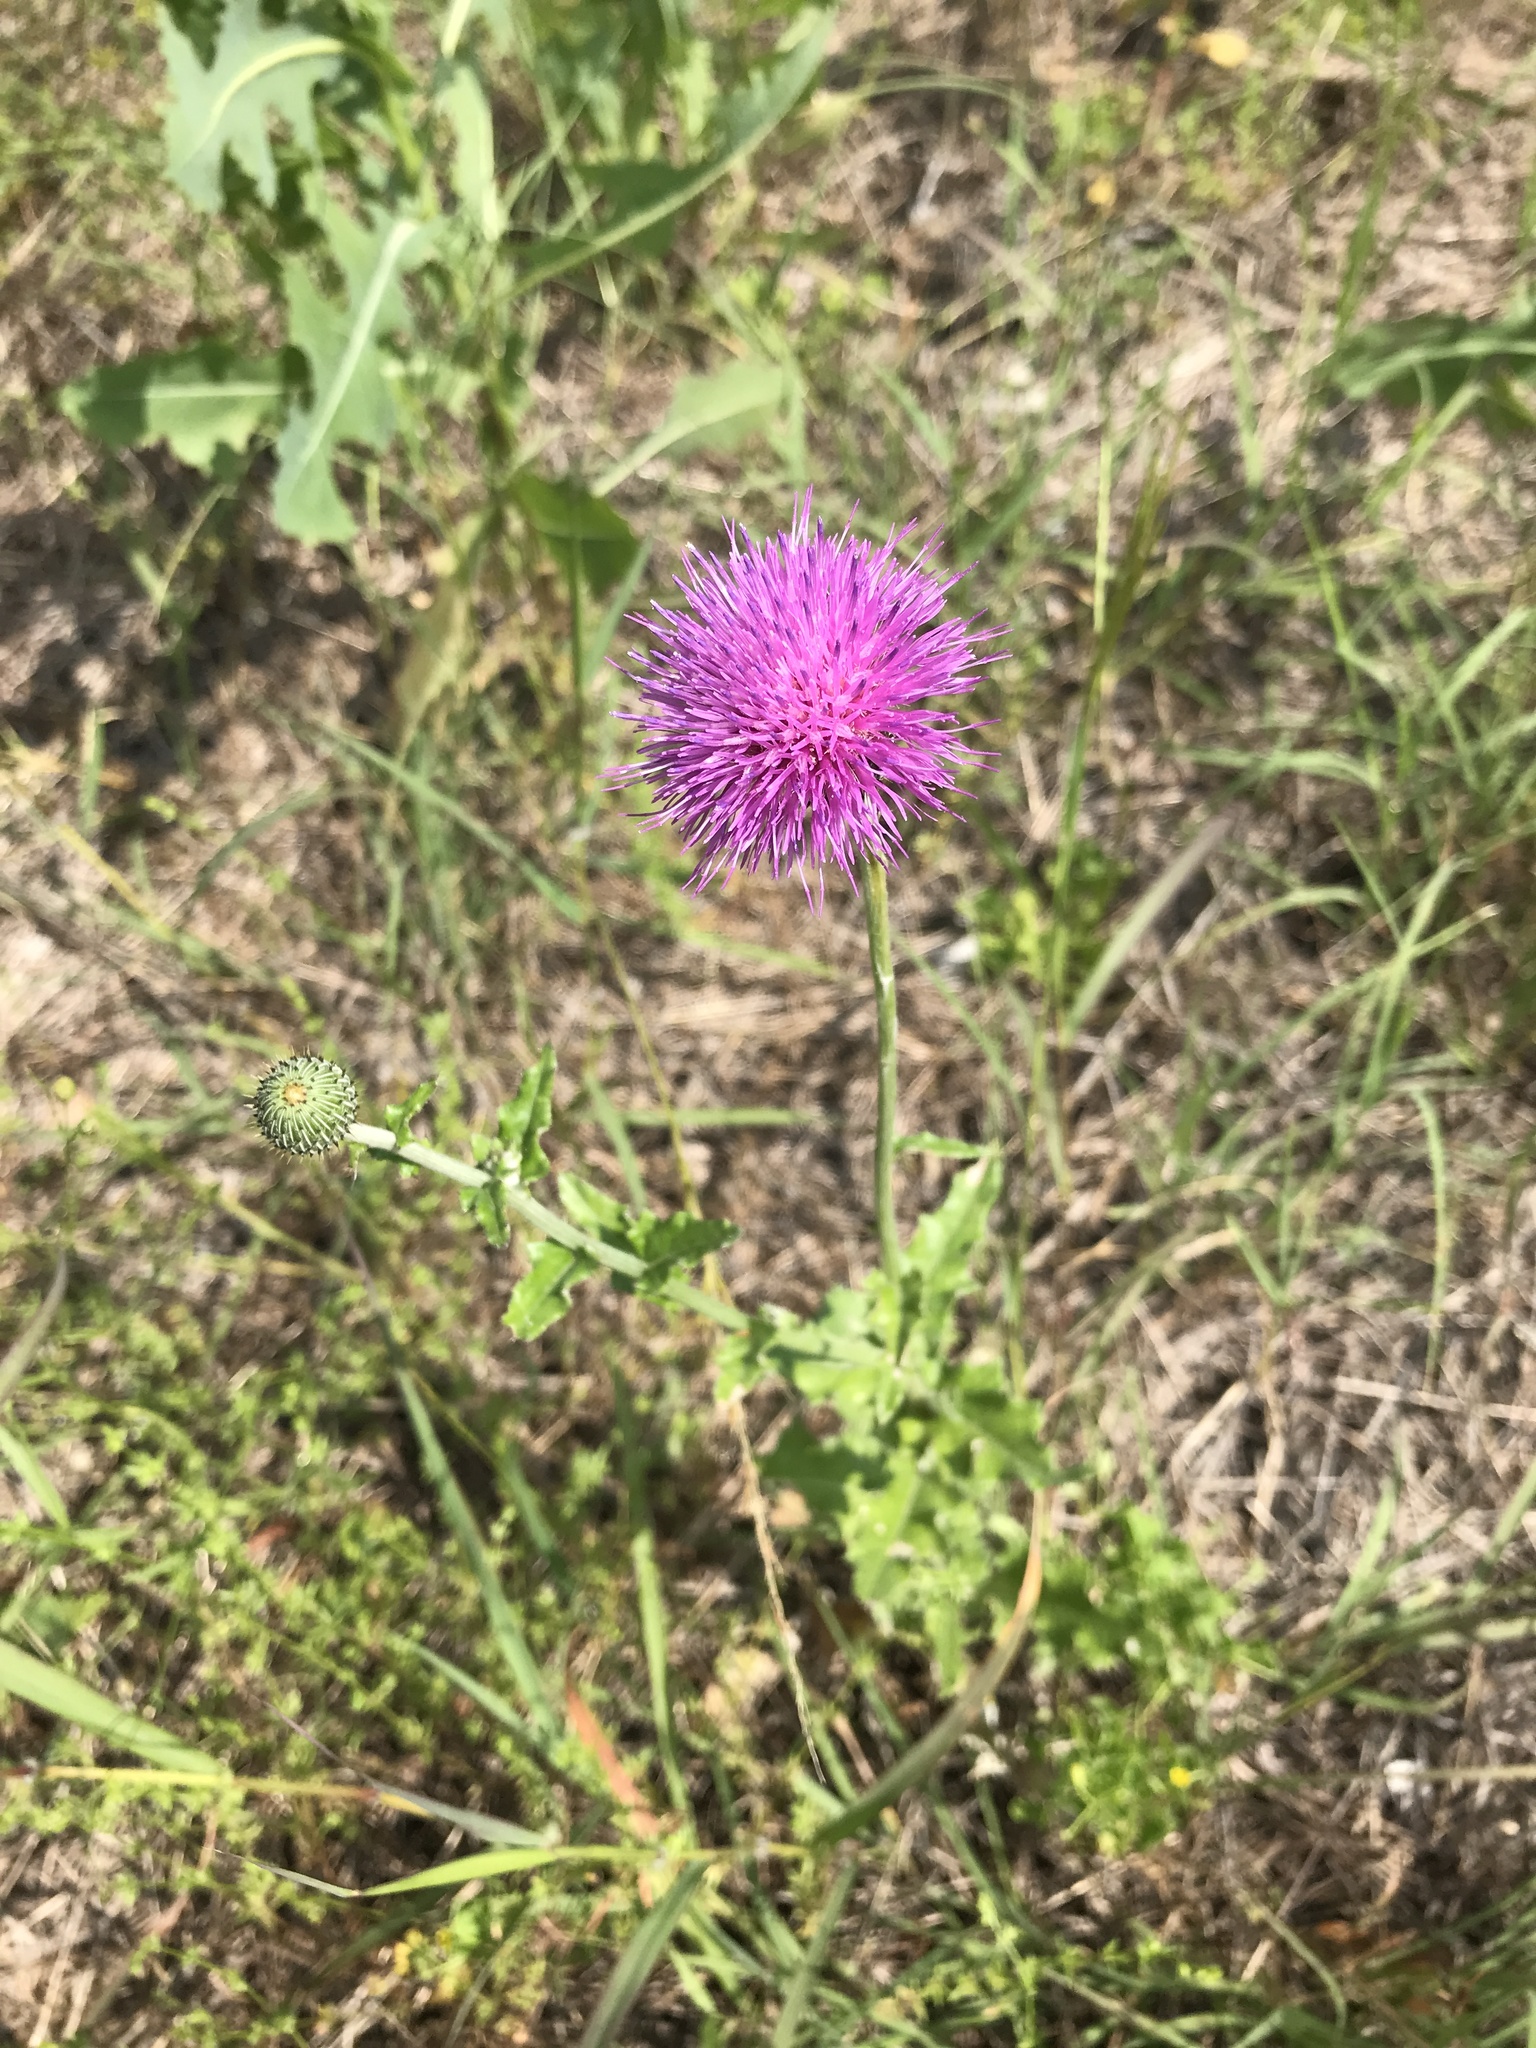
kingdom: Plantae
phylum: Tracheophyta
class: Magnoliopsida
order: Asterales
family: Asteraceae
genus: Cirsium
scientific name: Cirsium texanum
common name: Texas purple thistle
